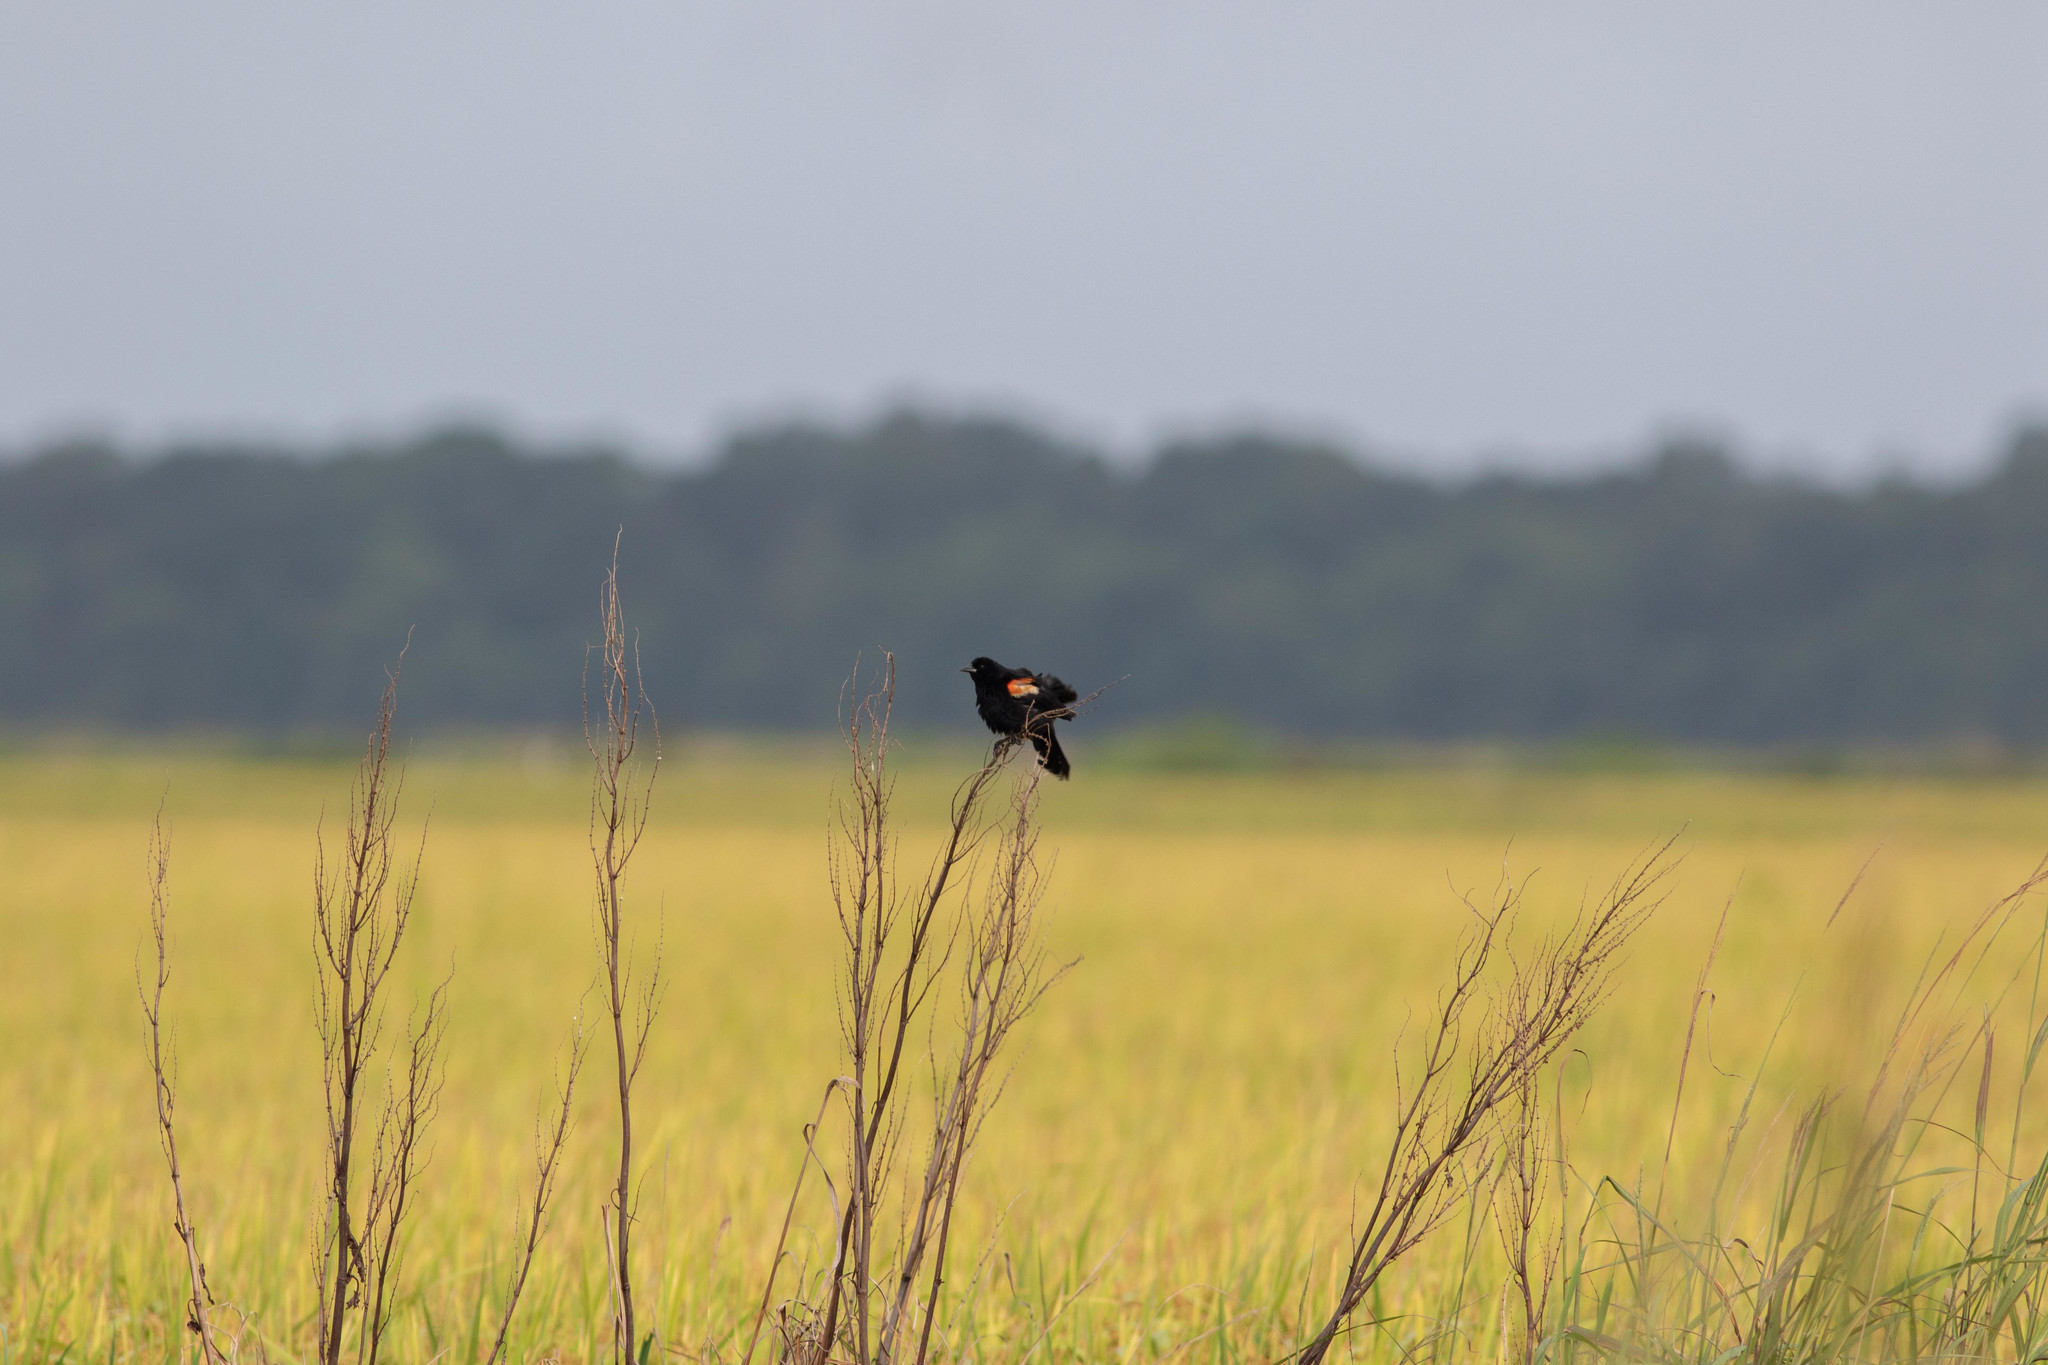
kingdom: Animalia
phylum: Chordata
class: Aves
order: Passeriformes
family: Icteridae
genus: Agelaius
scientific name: Agelaius phoeniceus
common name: Red-winged blackbird
